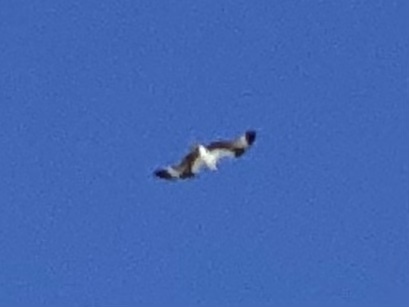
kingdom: Animalia
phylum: Chordata
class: Aves
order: Accipitriformes
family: Pandionidae
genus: Pandion
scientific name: Pandion haliaetus
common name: Osprey
